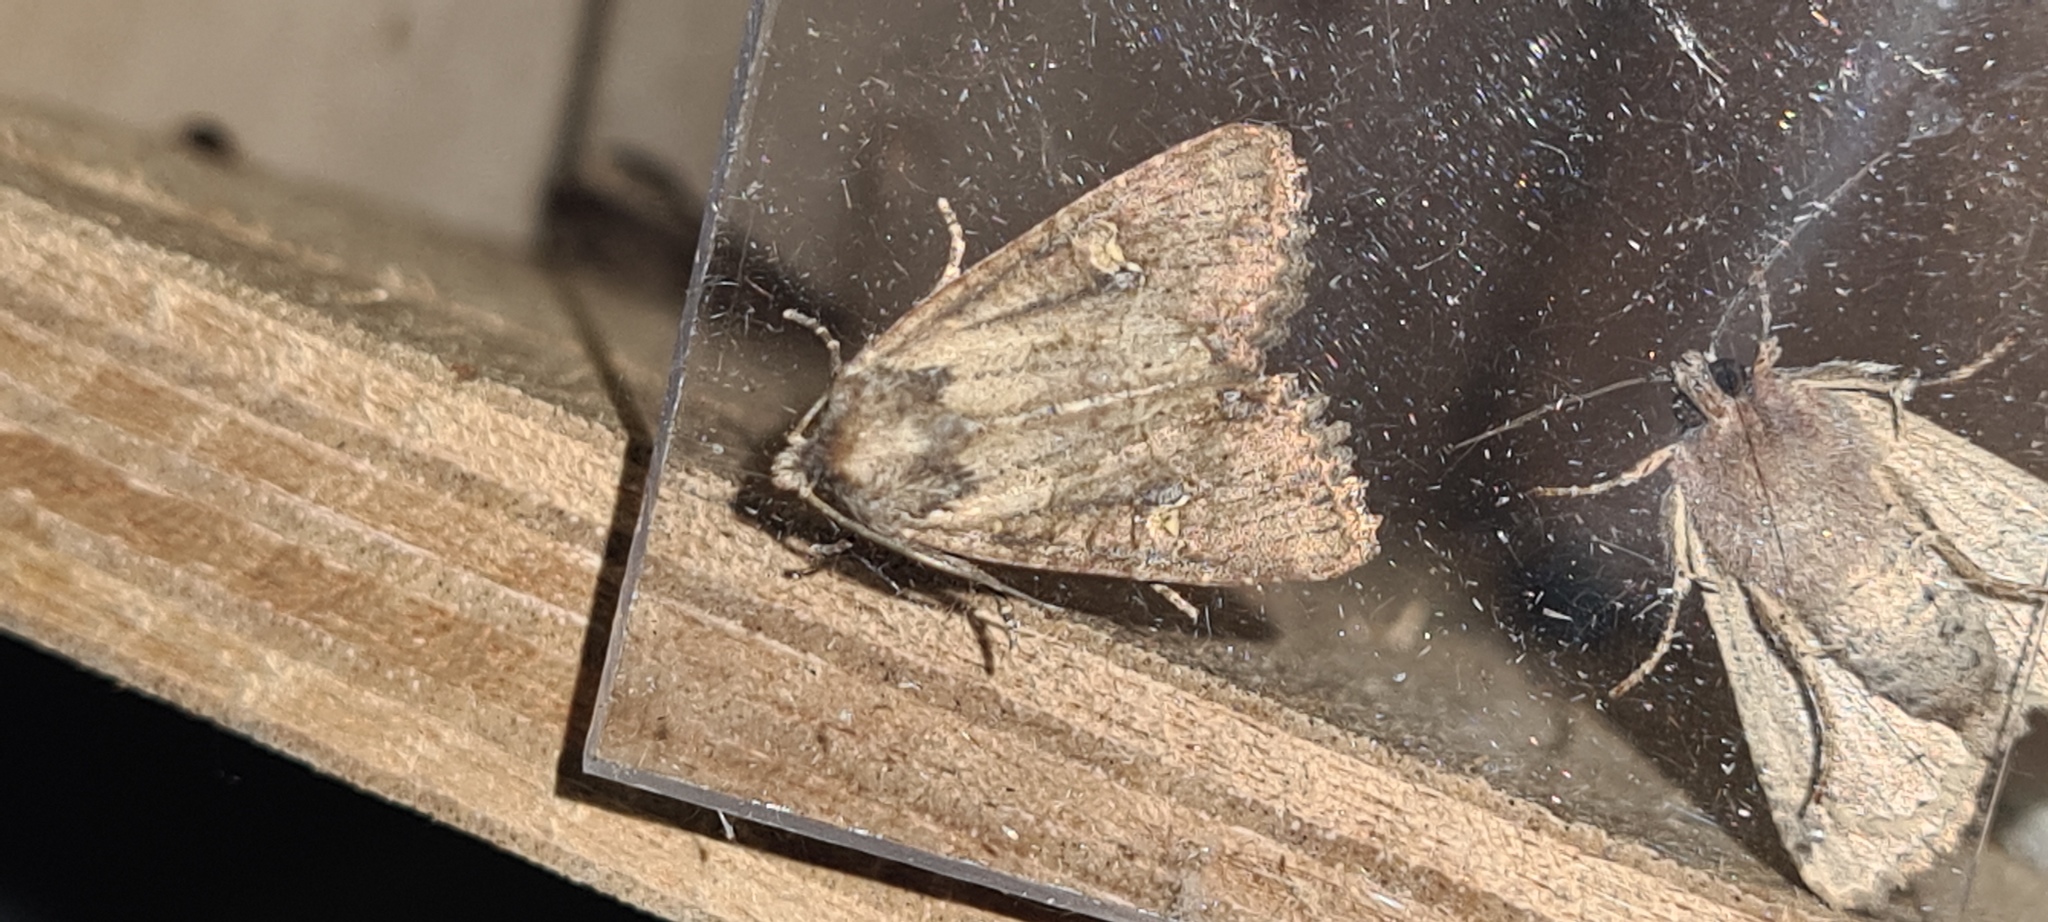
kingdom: Animalia
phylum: Arthropoda
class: Insecta
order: Lepidoptera
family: Noctuidae
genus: Mesapamea
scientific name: Mesapamea
